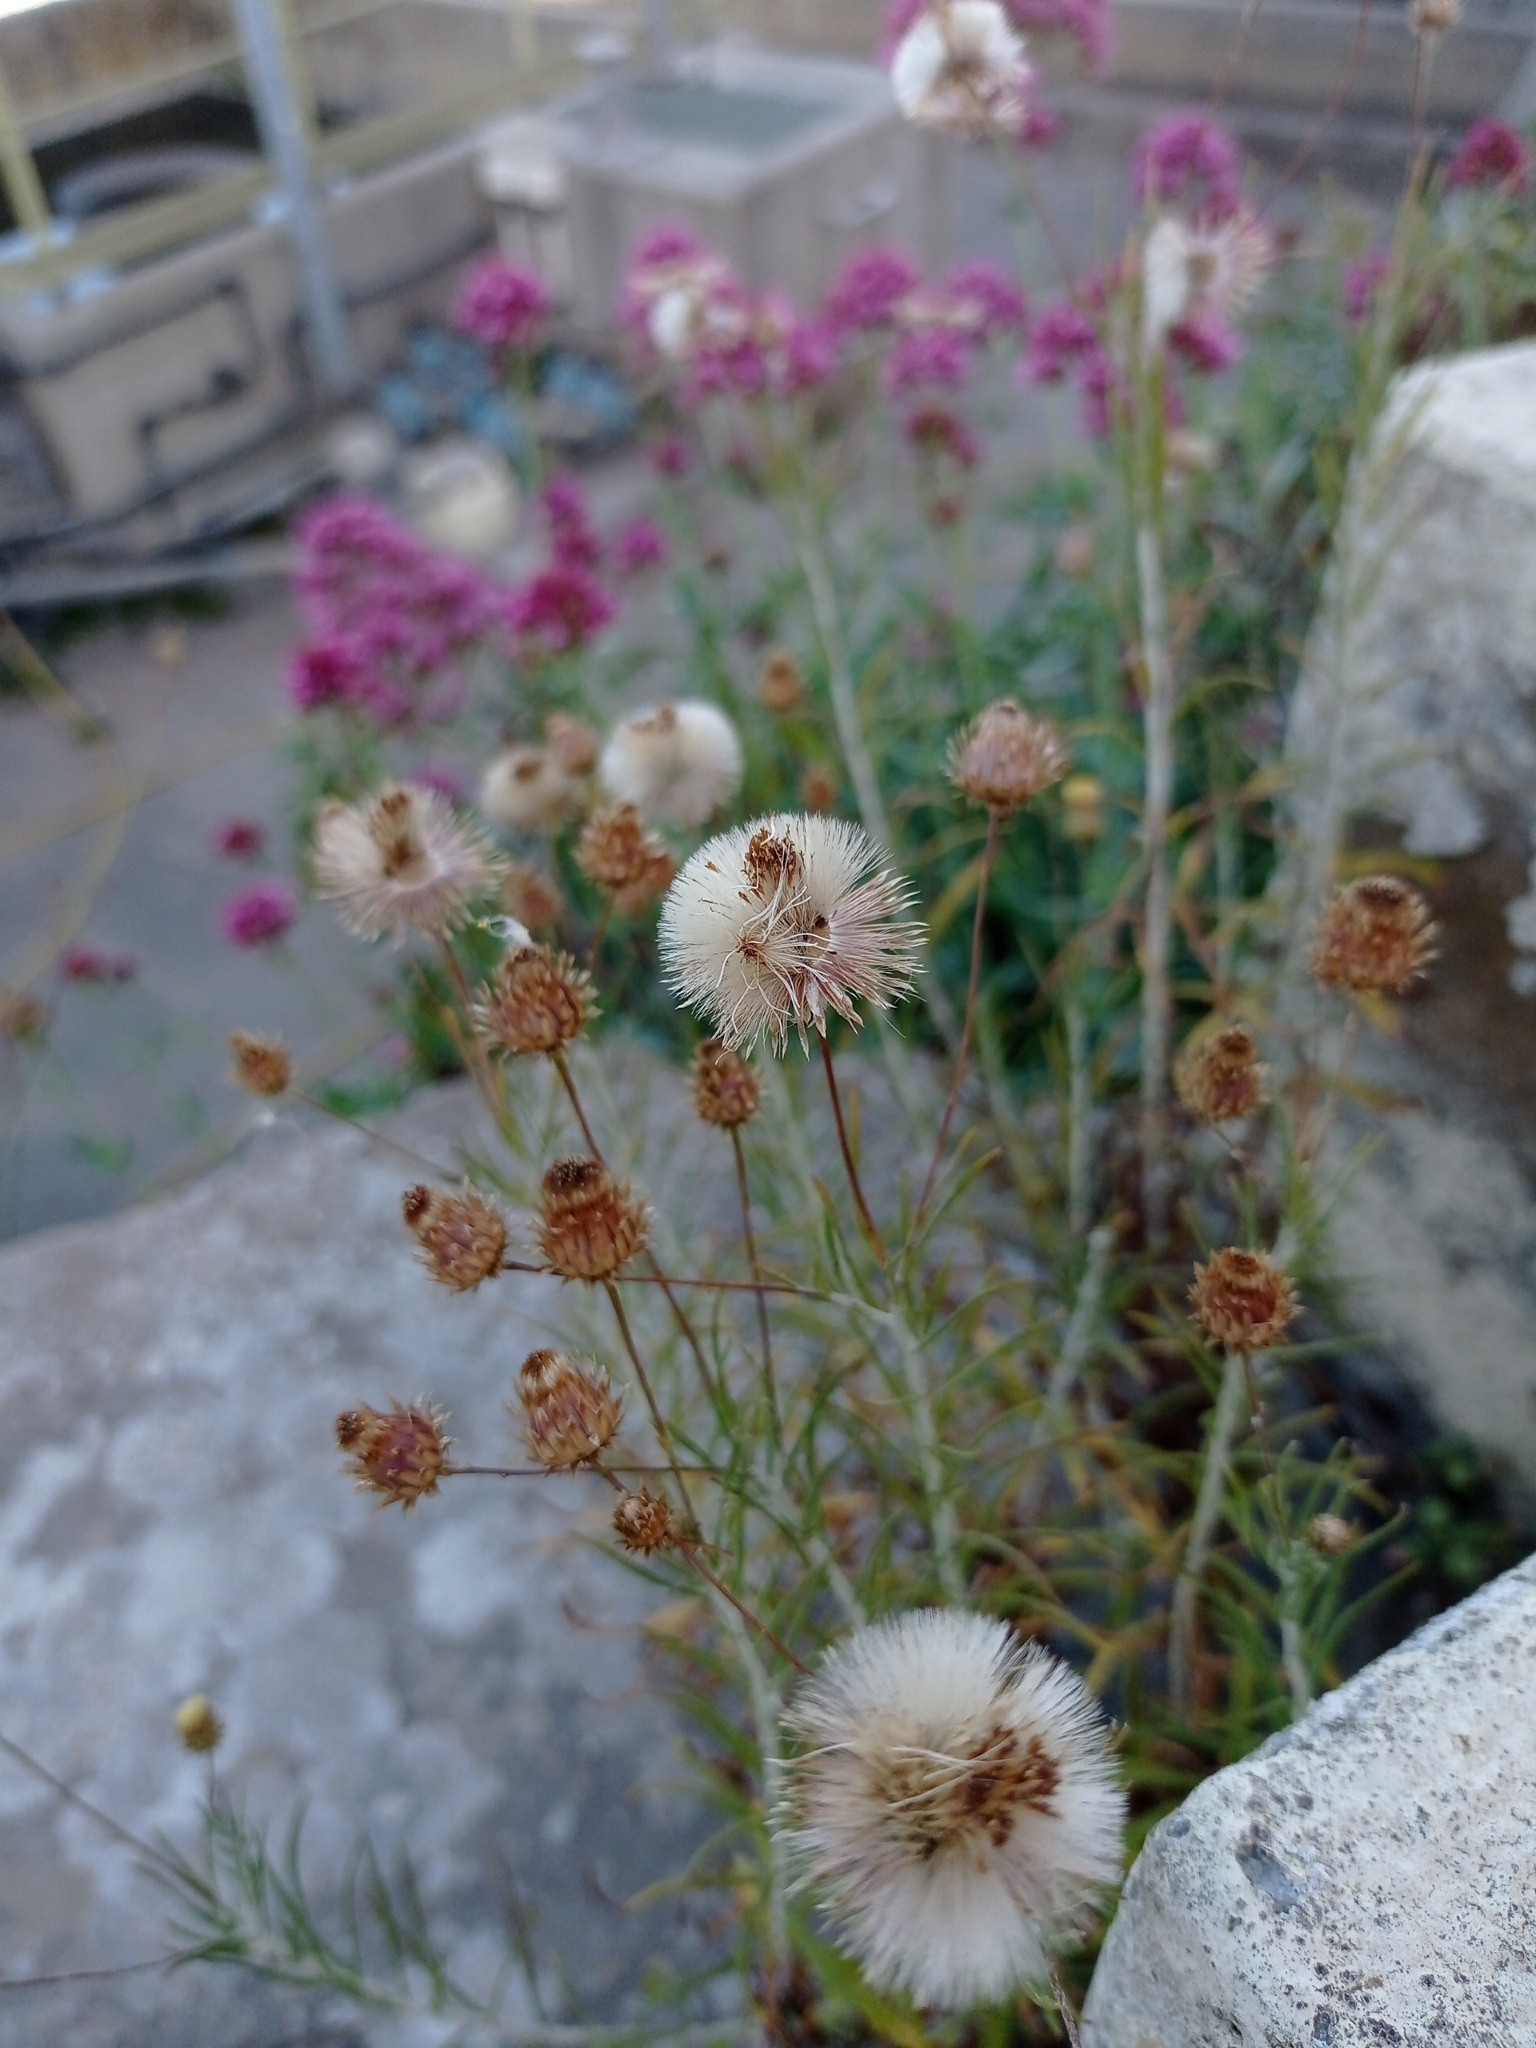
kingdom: Plantae
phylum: Tracheophyta
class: Magnoliopsida
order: Asterales
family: Asteraceae
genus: Phagnalon
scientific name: Phagnalon saxatile
